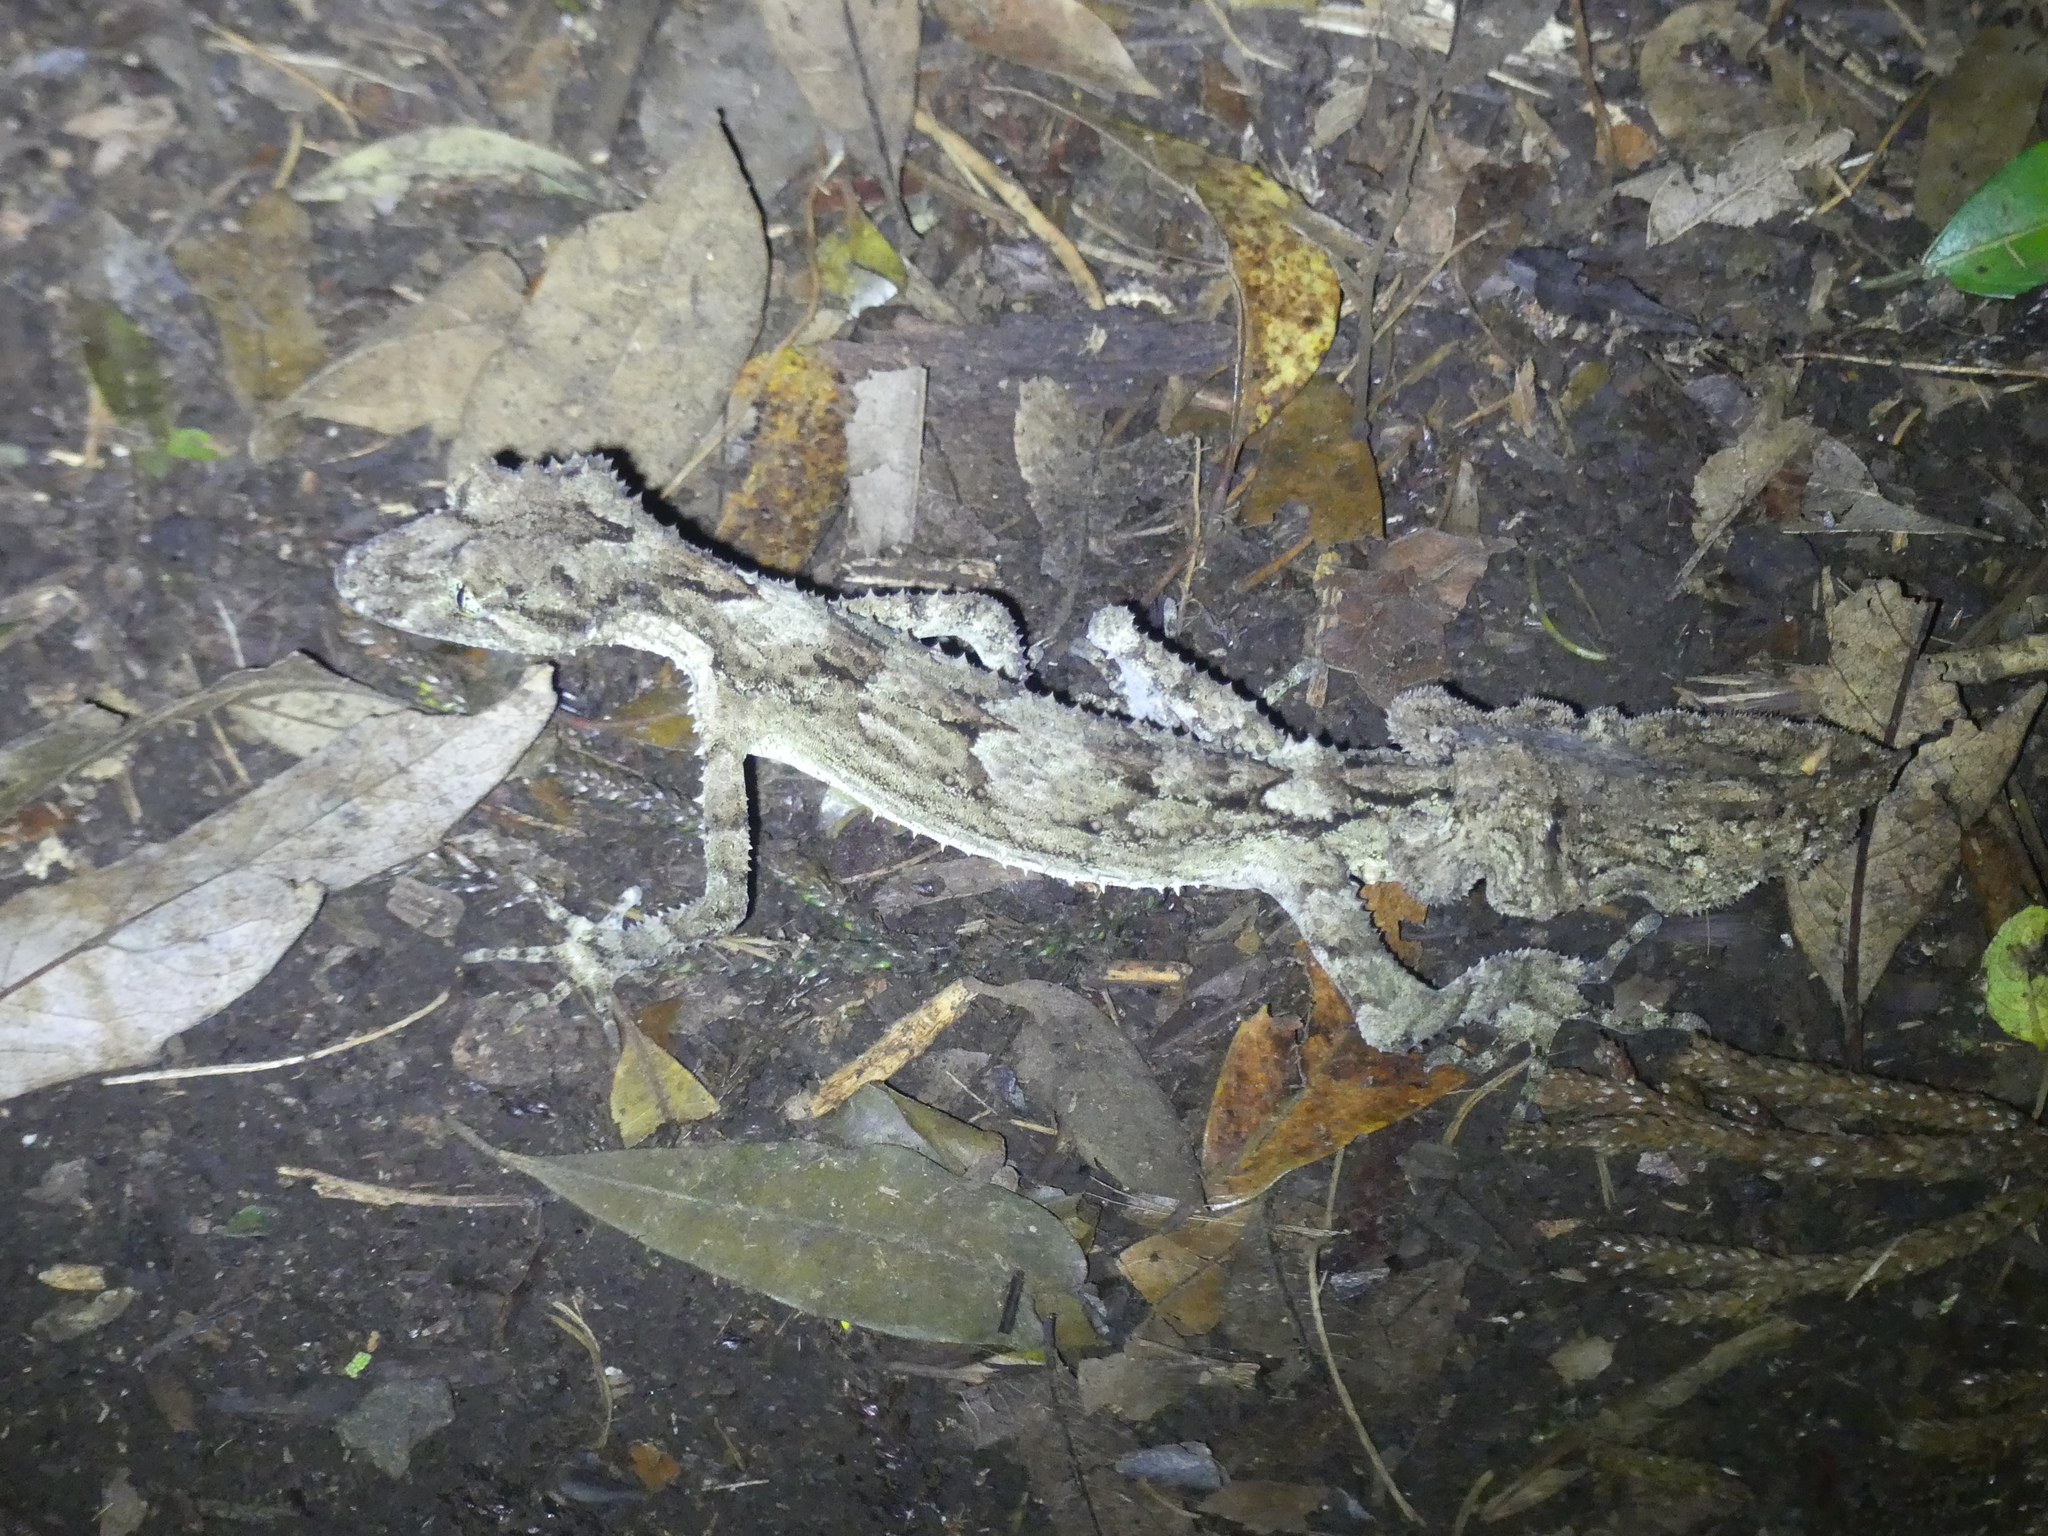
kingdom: Animalia
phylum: Chordata
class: Squamata
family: Carphodactylidae
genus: Saltuarius
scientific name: Saltuarius swaini
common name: Southern leaf-tailed gecko
